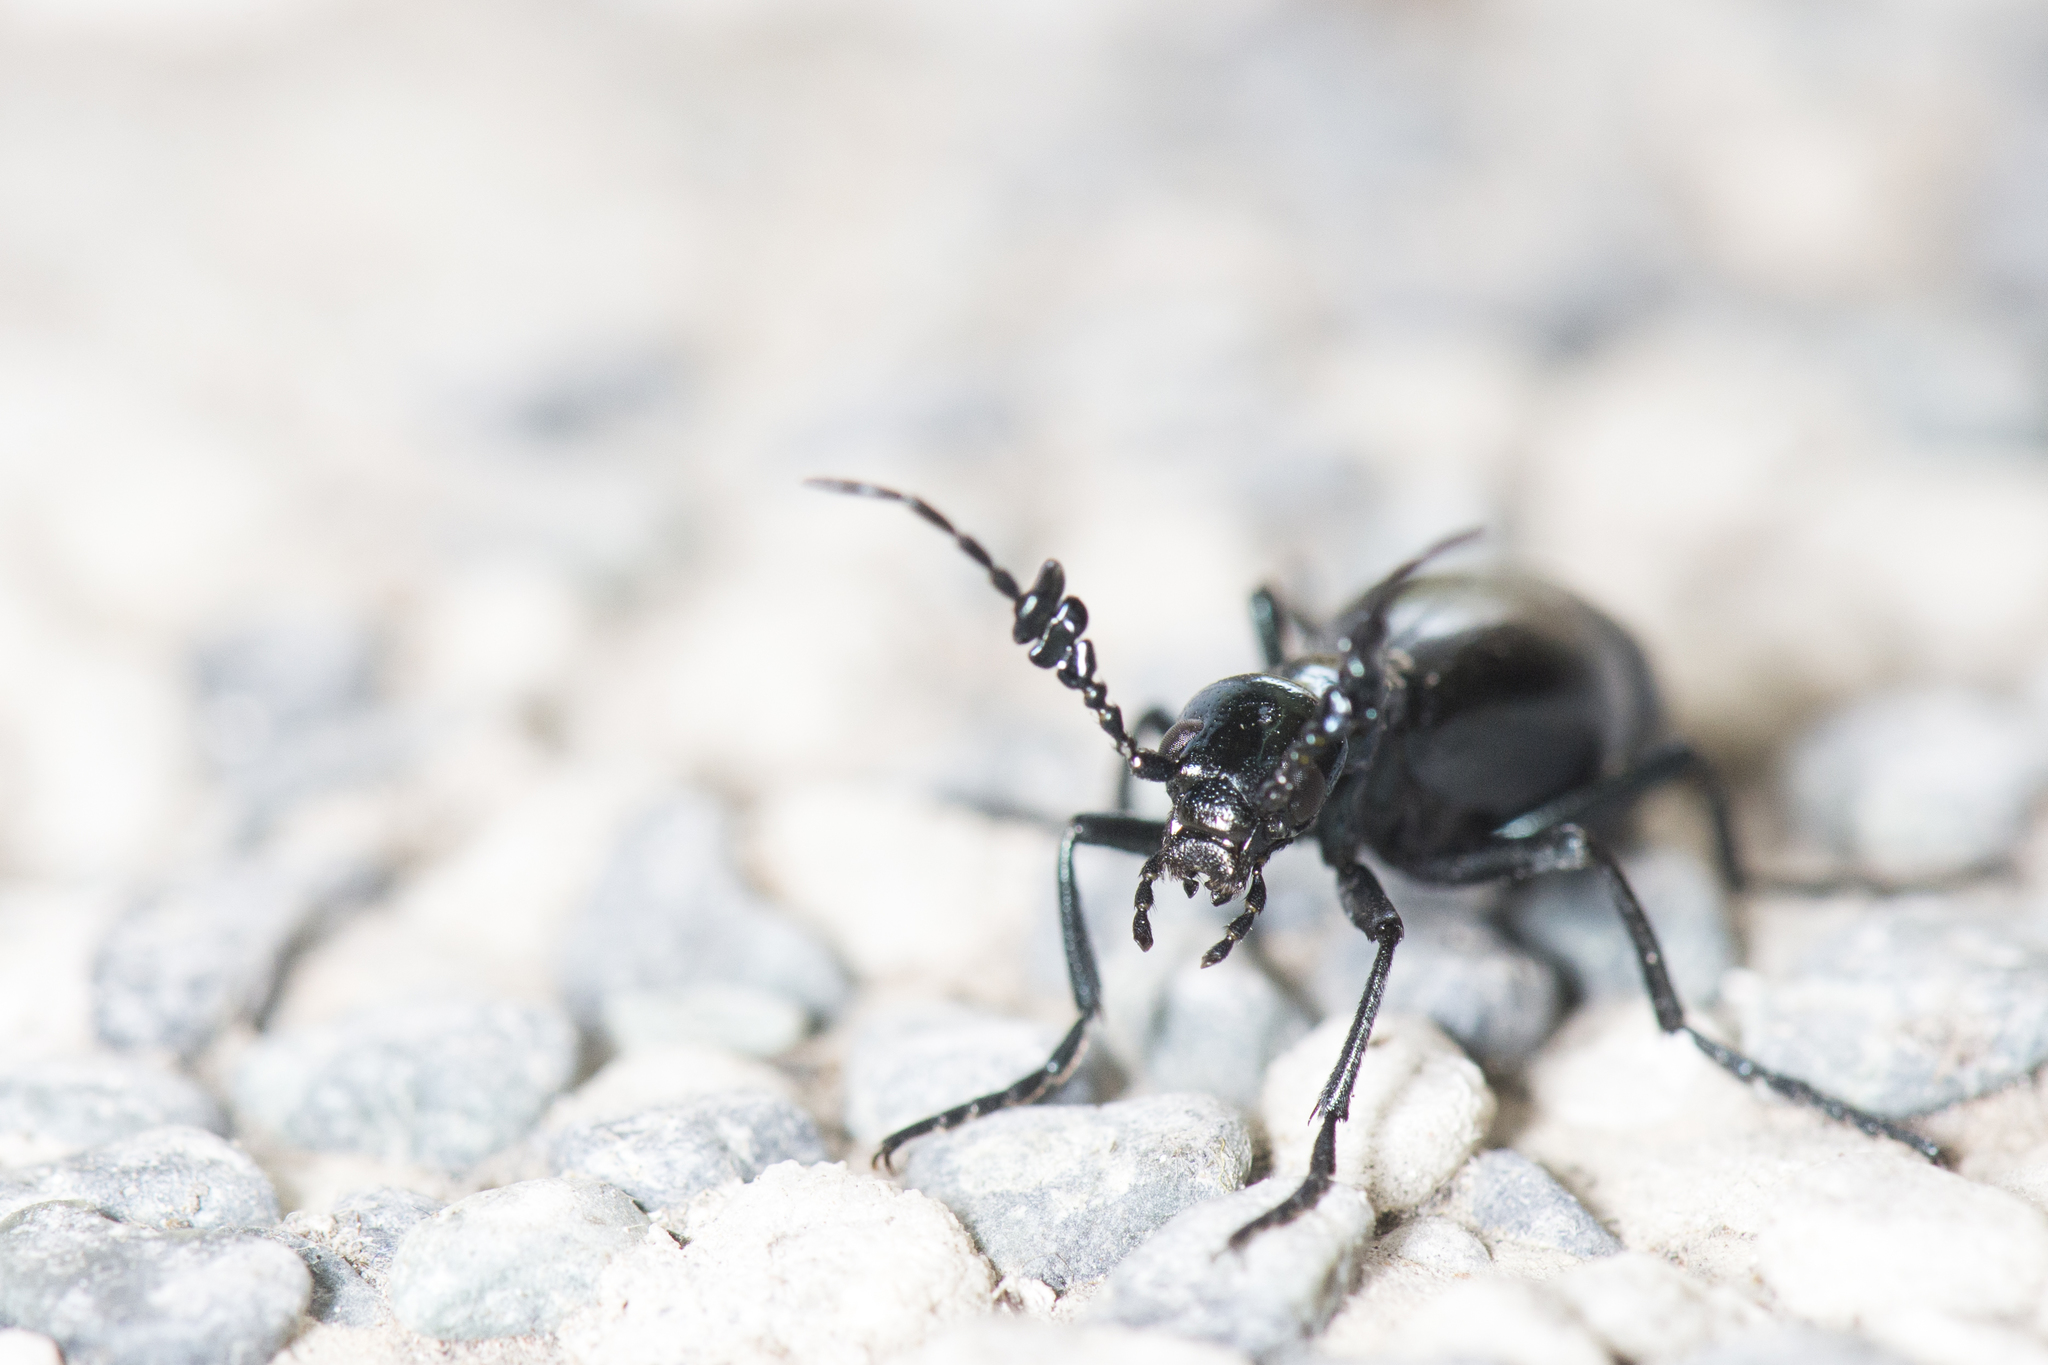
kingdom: Animalia
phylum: Arthropoda
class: Insecta
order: Coleoptera
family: Meloidae
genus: Meloe
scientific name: Meloe formosensis
